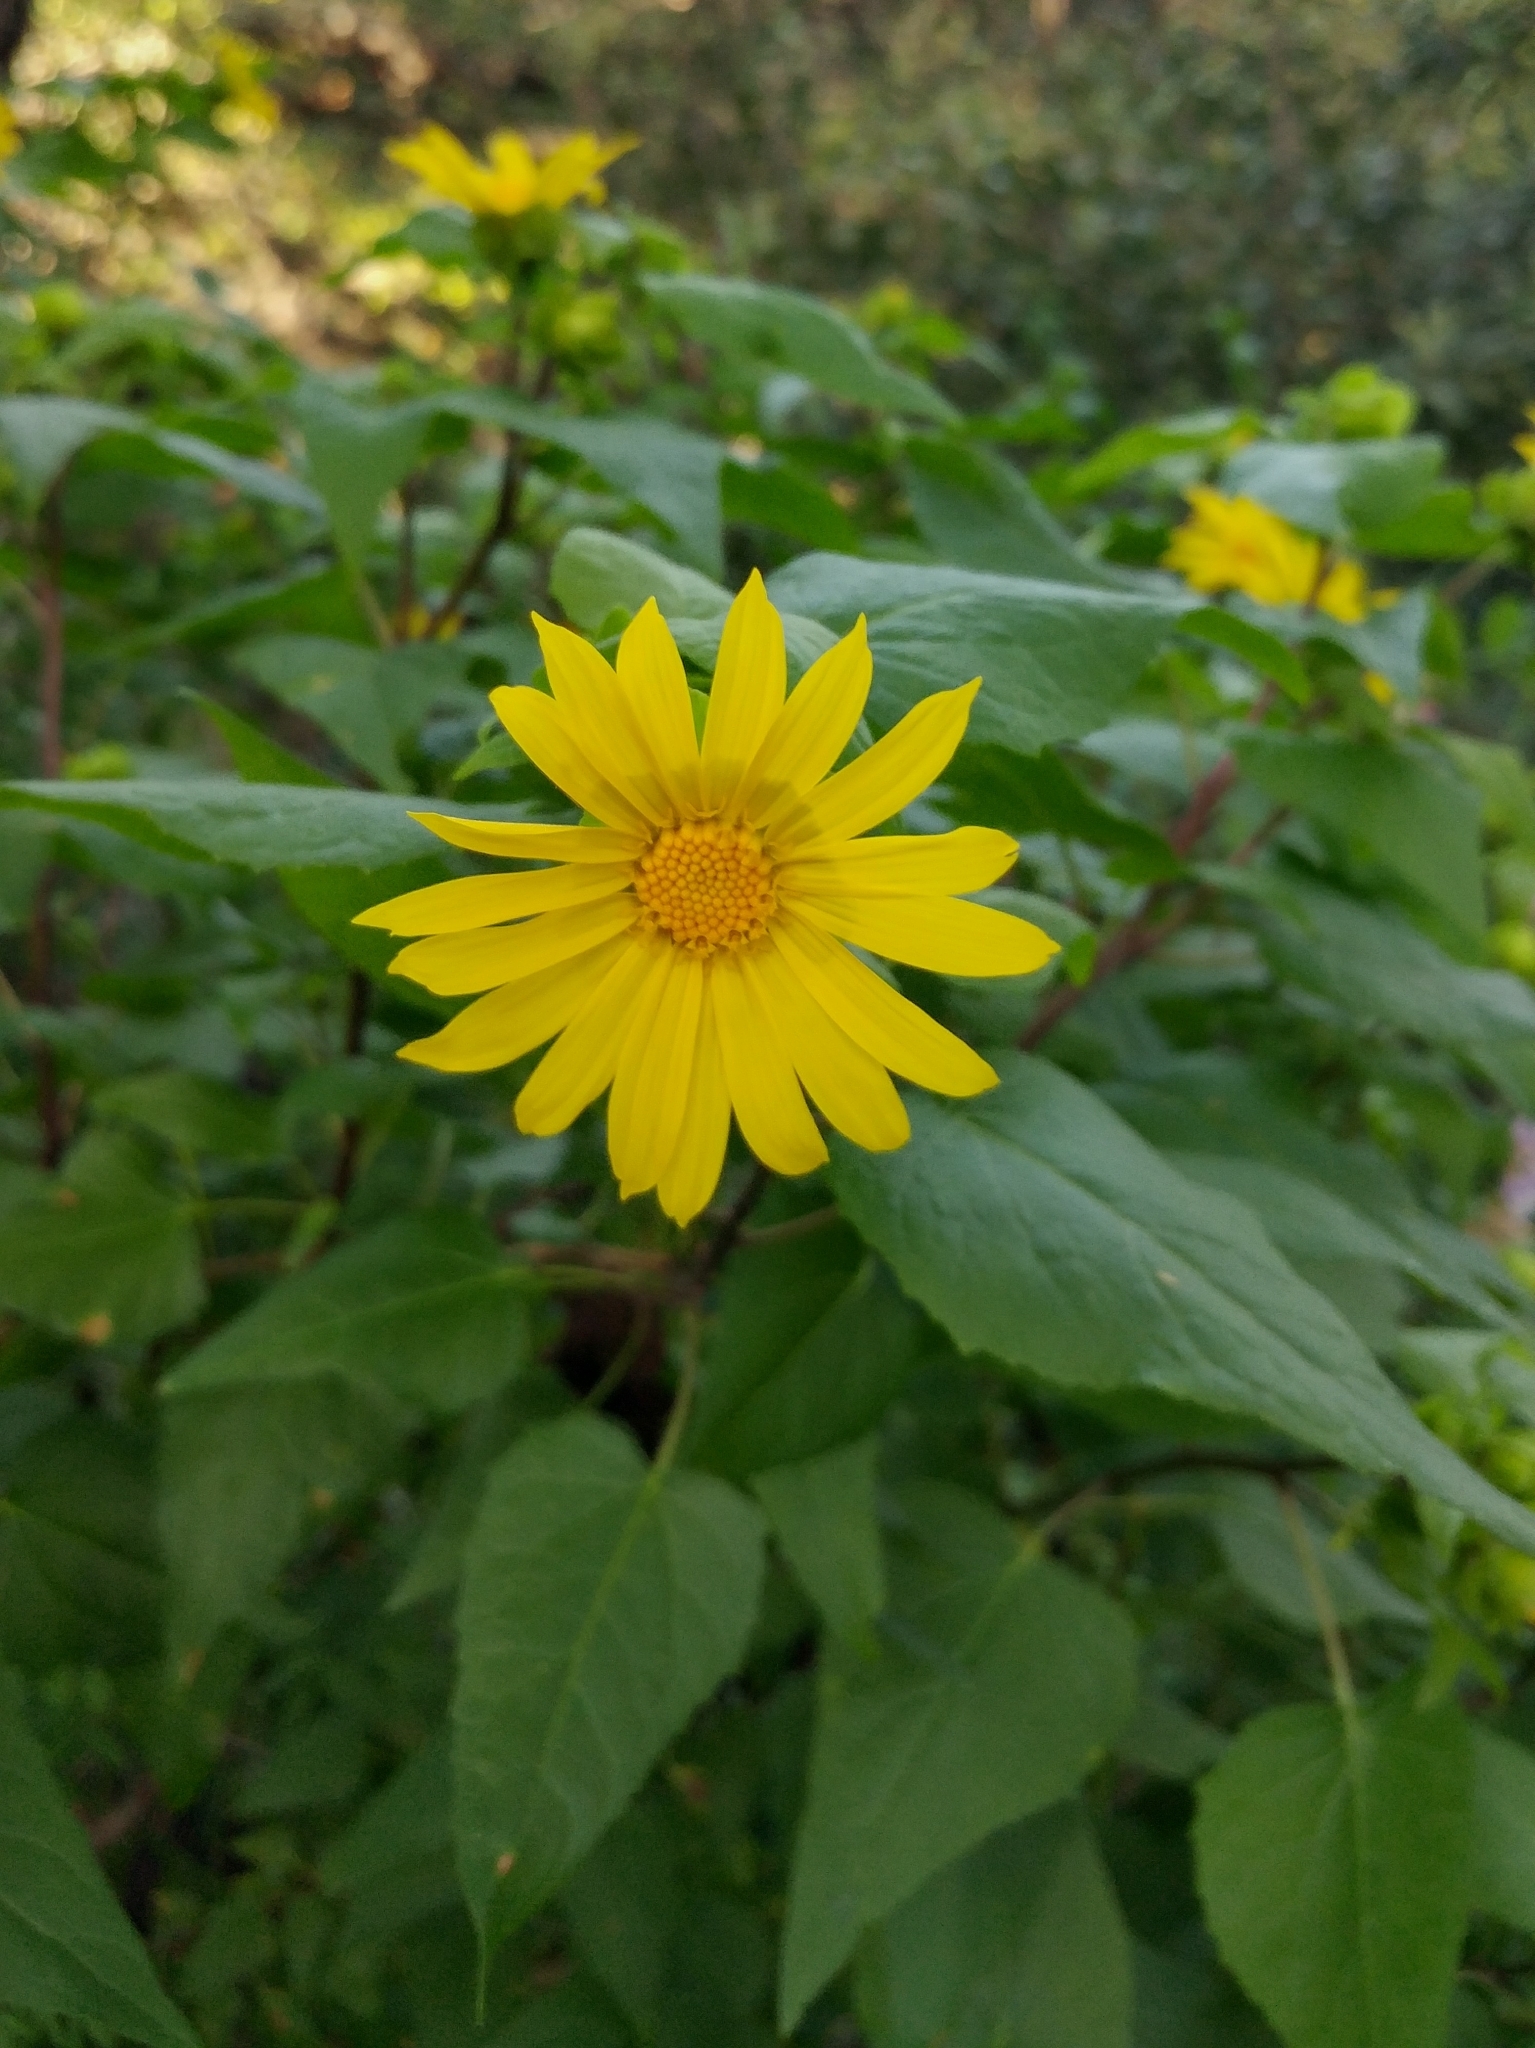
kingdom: Plantae
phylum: Tracheophyta
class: Magnoliopsida
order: Asterales
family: Asteraceae
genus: Venegasia
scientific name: Venegasia carpesioides
